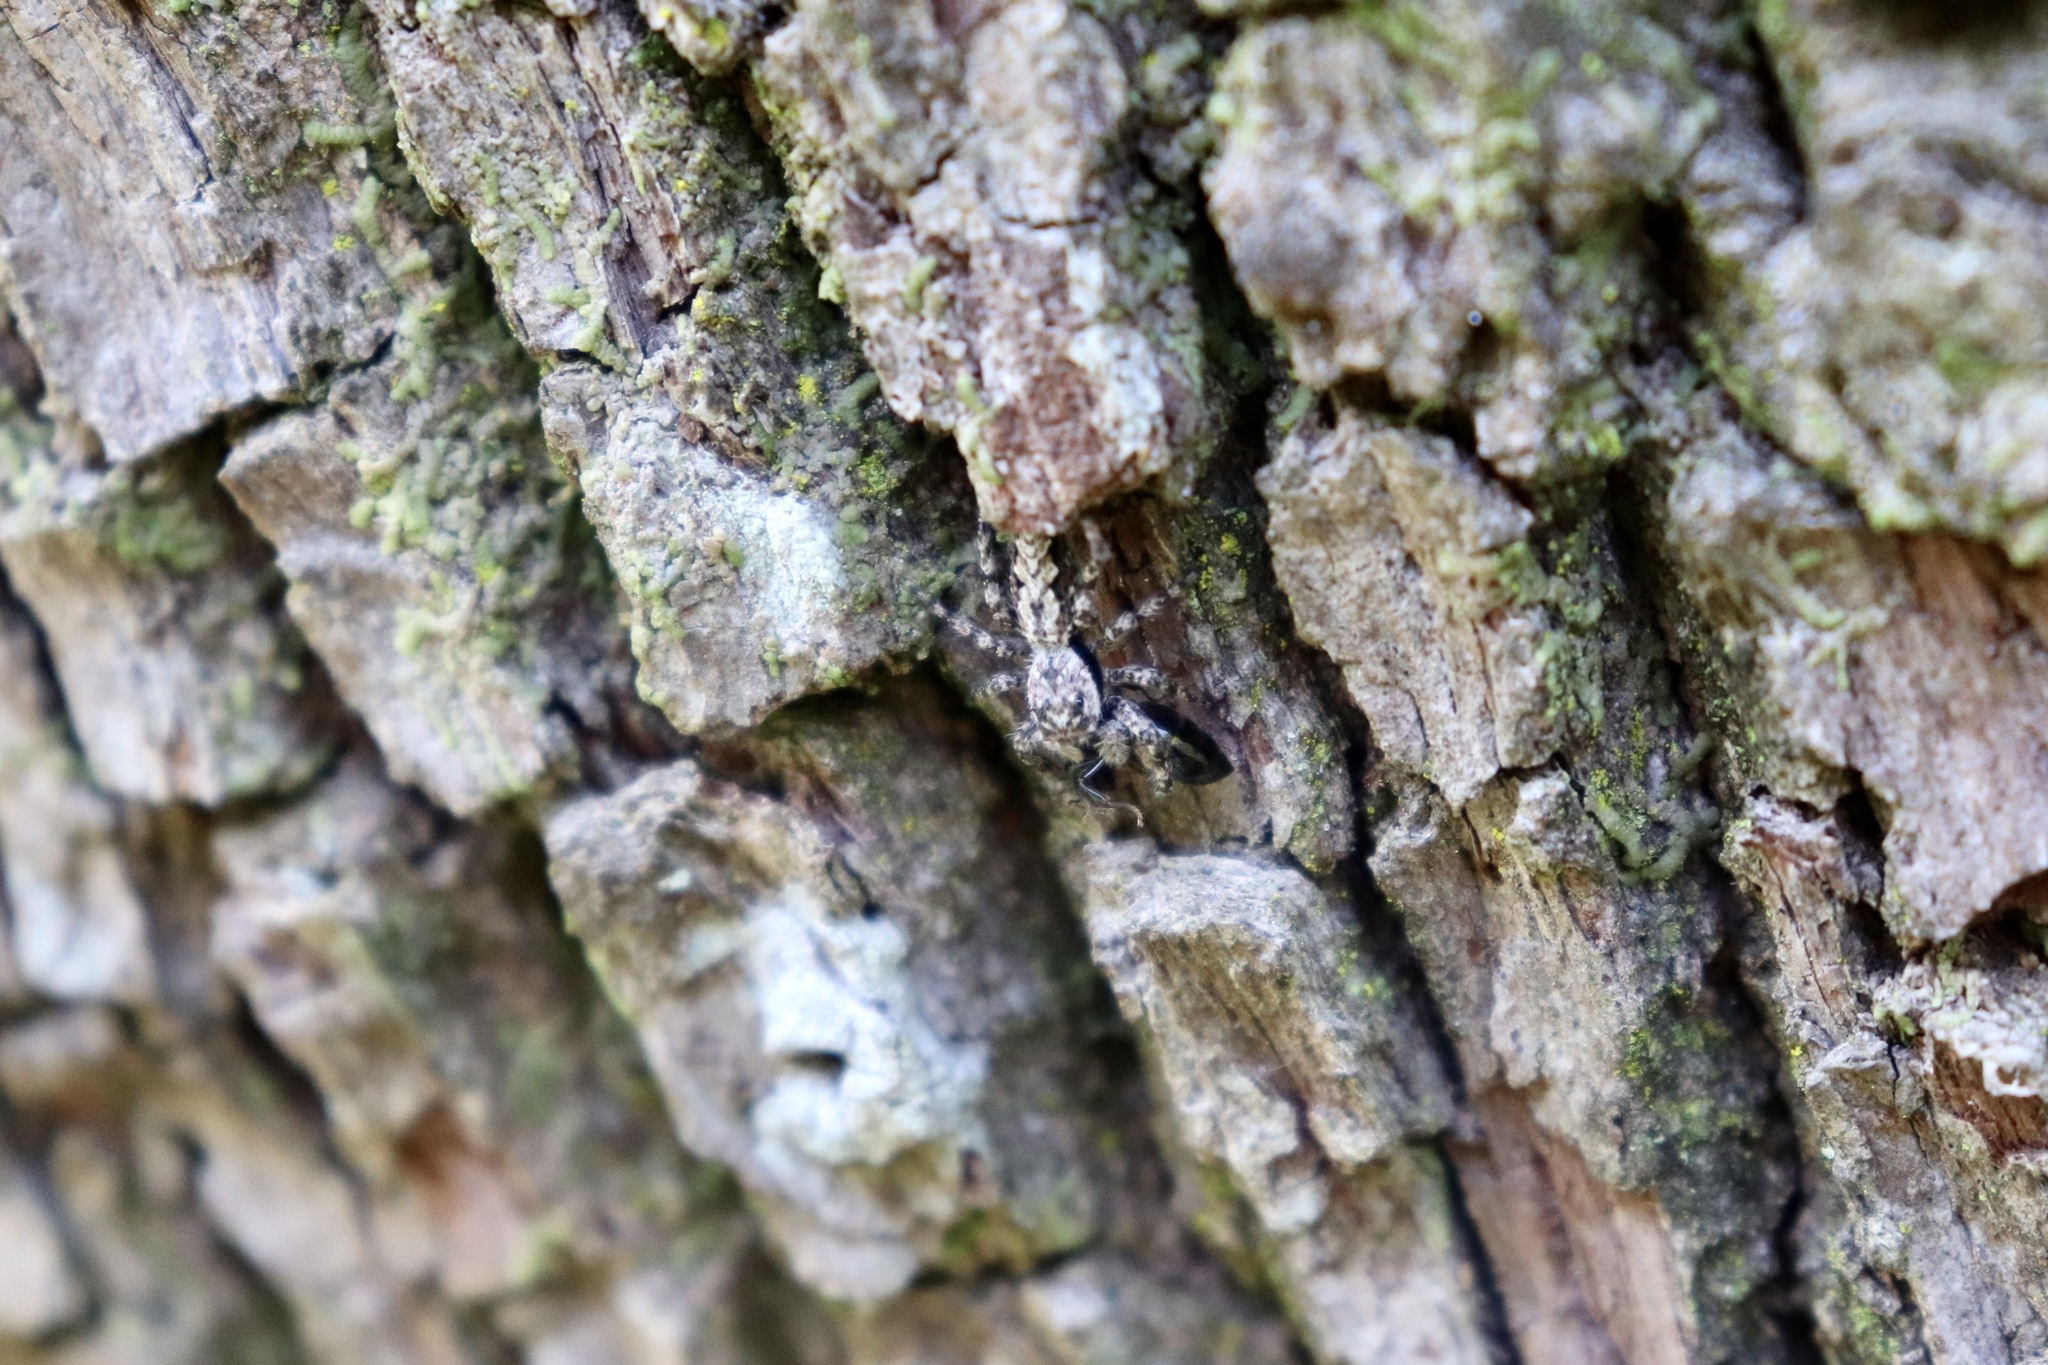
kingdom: Animalia
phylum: Arthropoda
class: Arachnida
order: Araneae
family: Salticidae
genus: Platycryptus
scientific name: Platycryptus undatus
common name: Tan jumping spider
